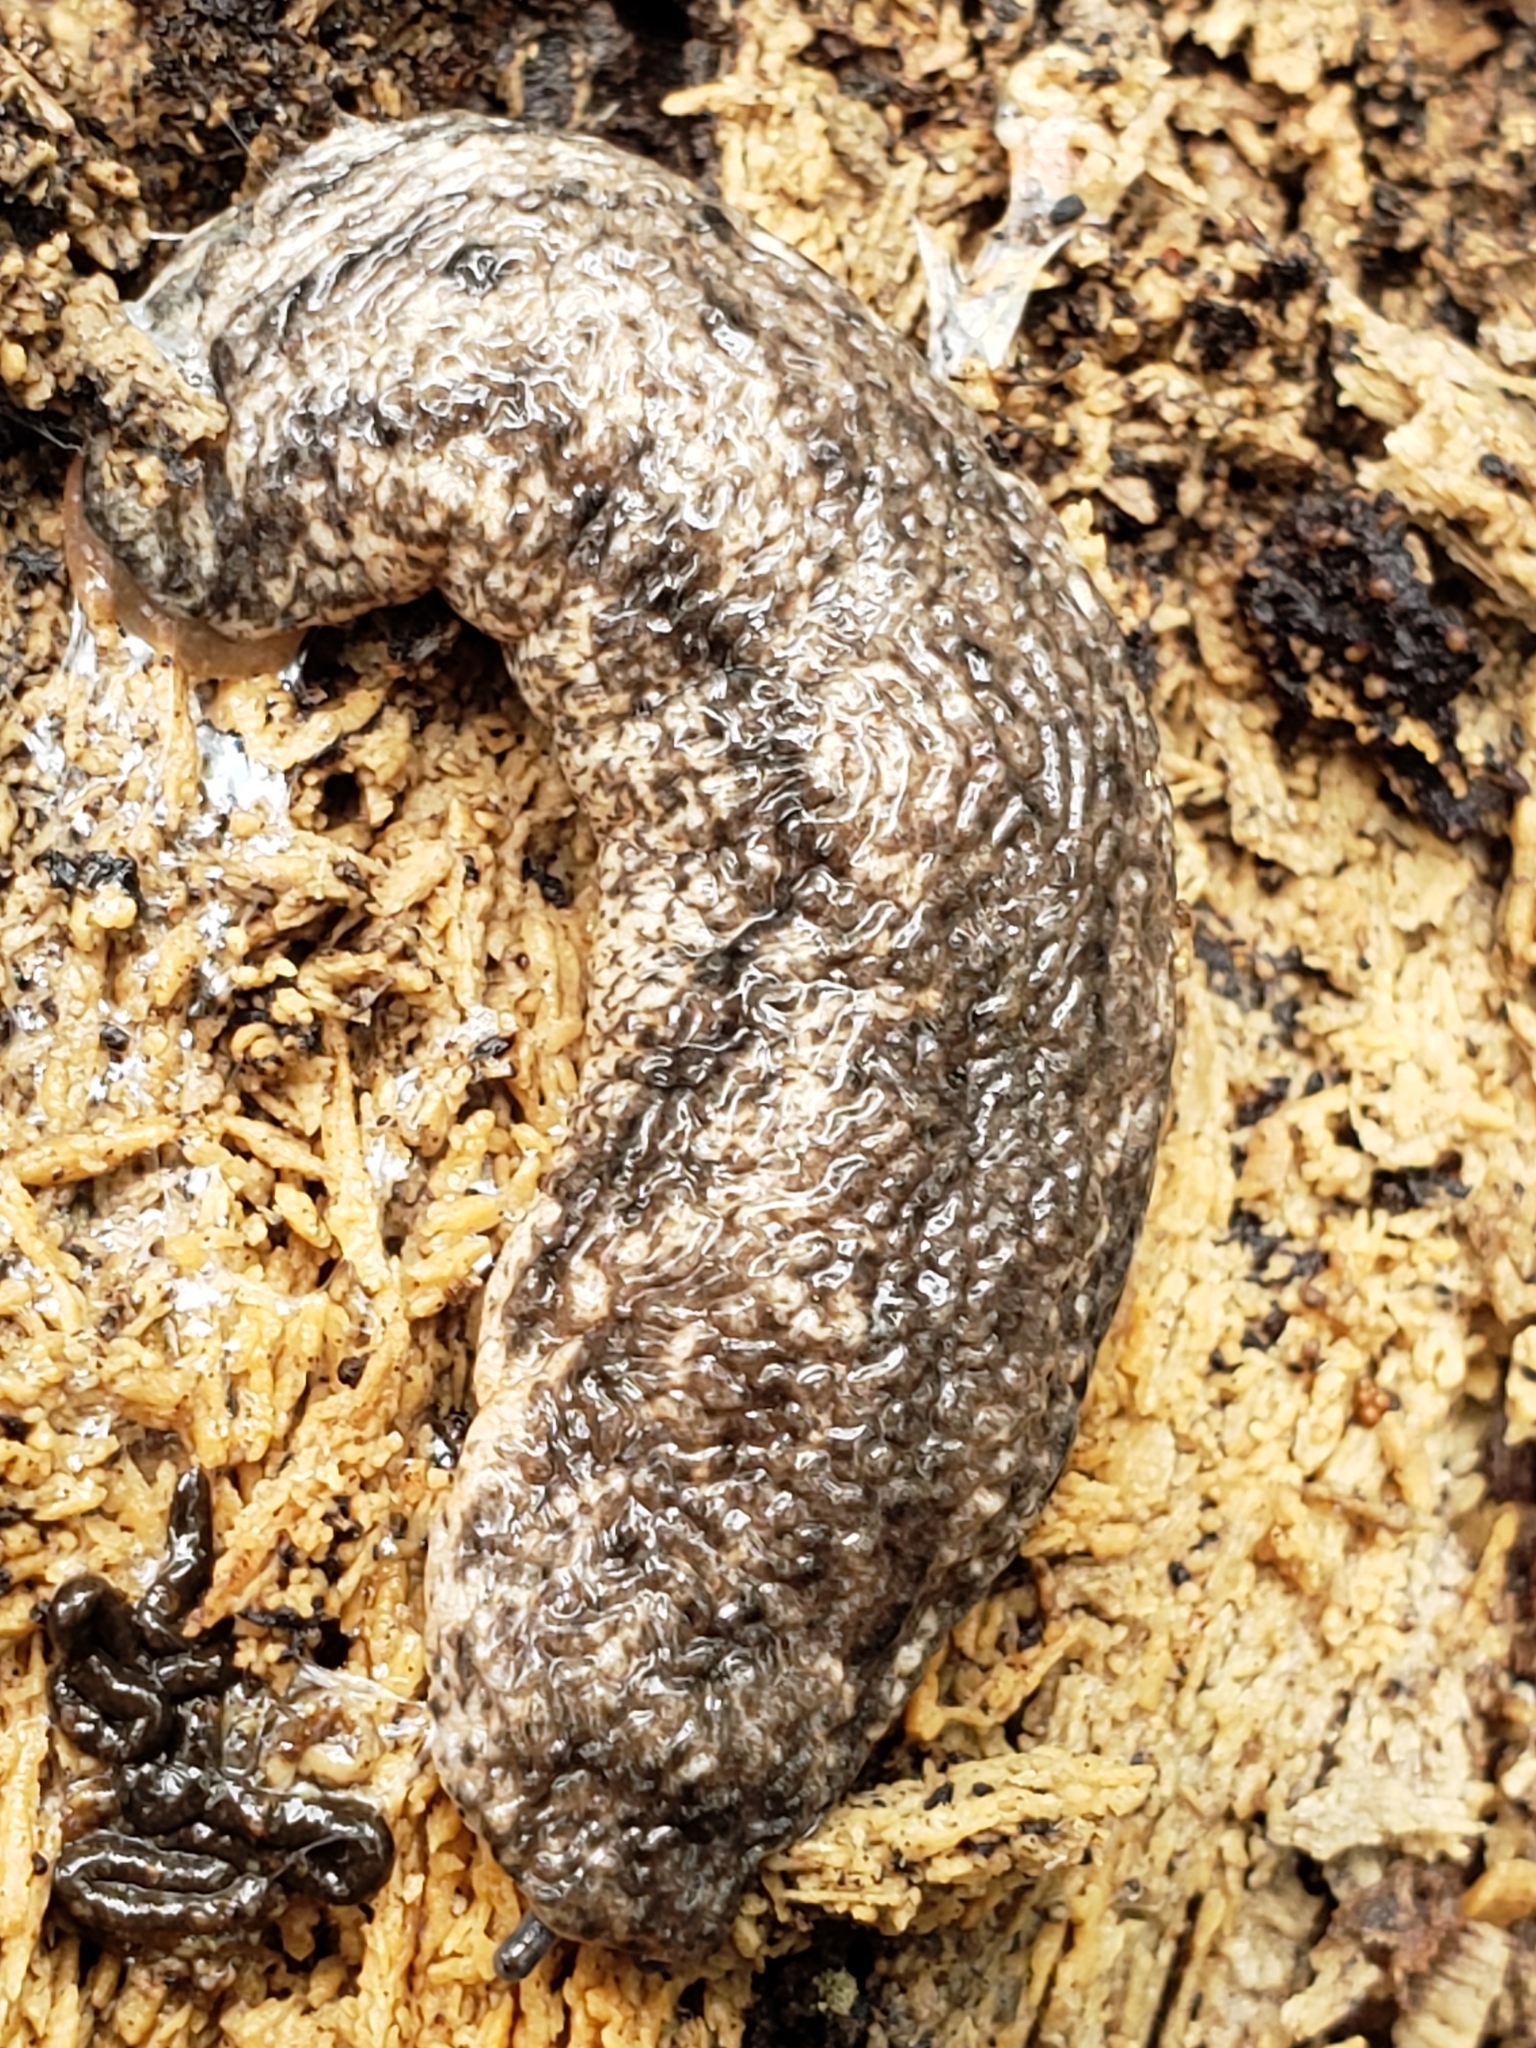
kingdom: Animalia
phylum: Mollusca
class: Gastropoda
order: Stylommatophora
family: Philomycidae
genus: Philomycus
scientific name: Philomycus togatus
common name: Toga mantleslug
